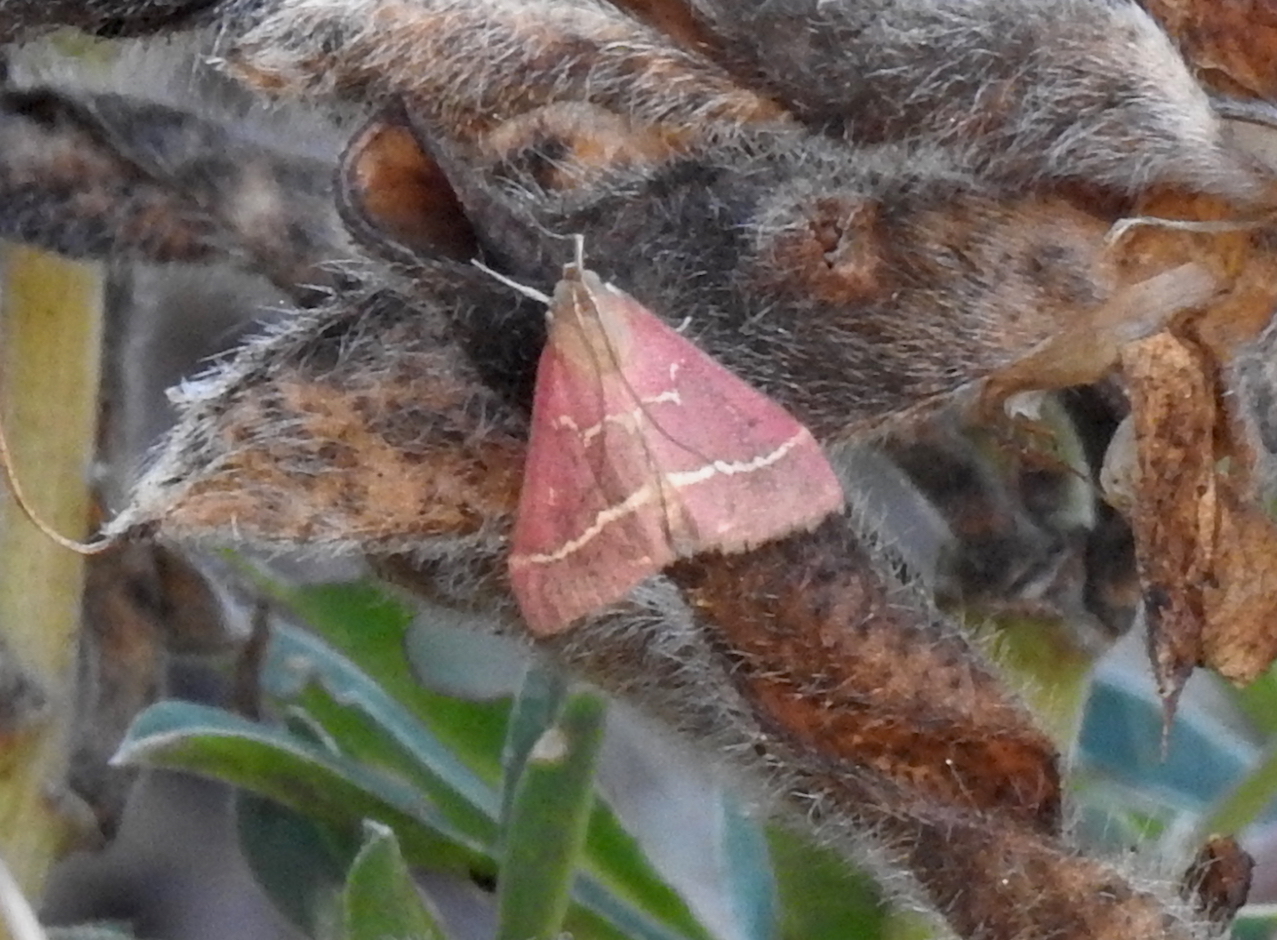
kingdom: Animalia
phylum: Arthropoda
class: Insecta
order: Lepidoptera
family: Crambidae
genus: Pyrausta
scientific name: Pyrausta volupialis
